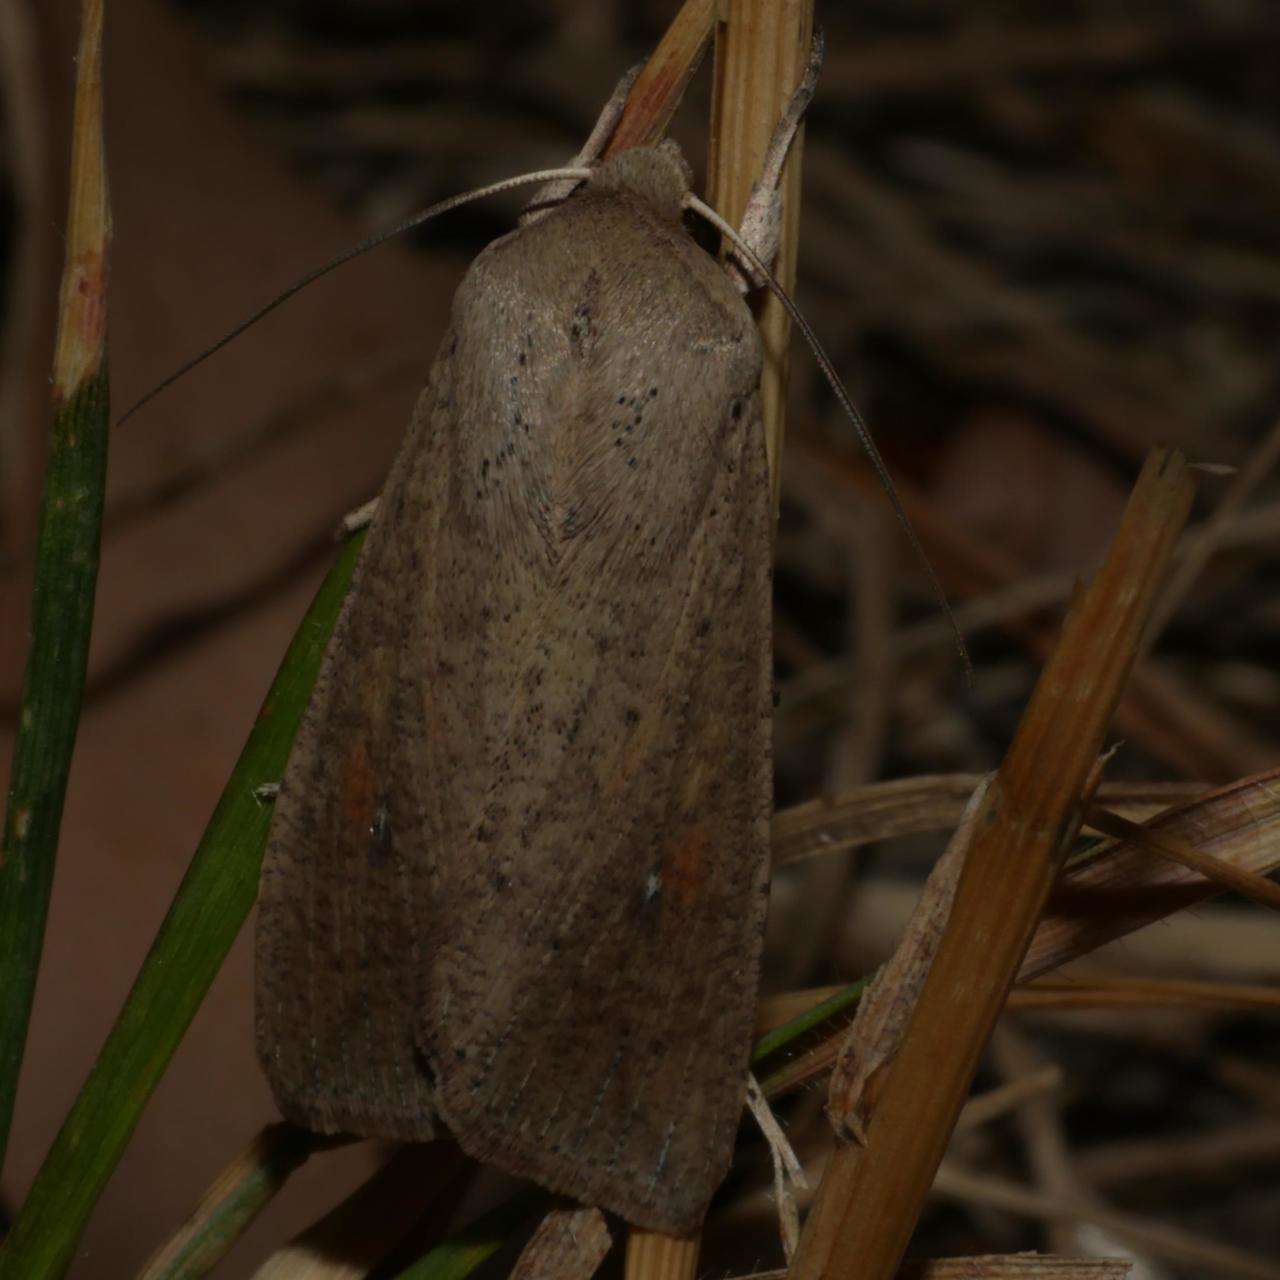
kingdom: Animalia
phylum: Arthropoda
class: Insecta
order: Lepidoptera
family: Noctuidae
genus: Mythimna
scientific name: Mythimna convecta
